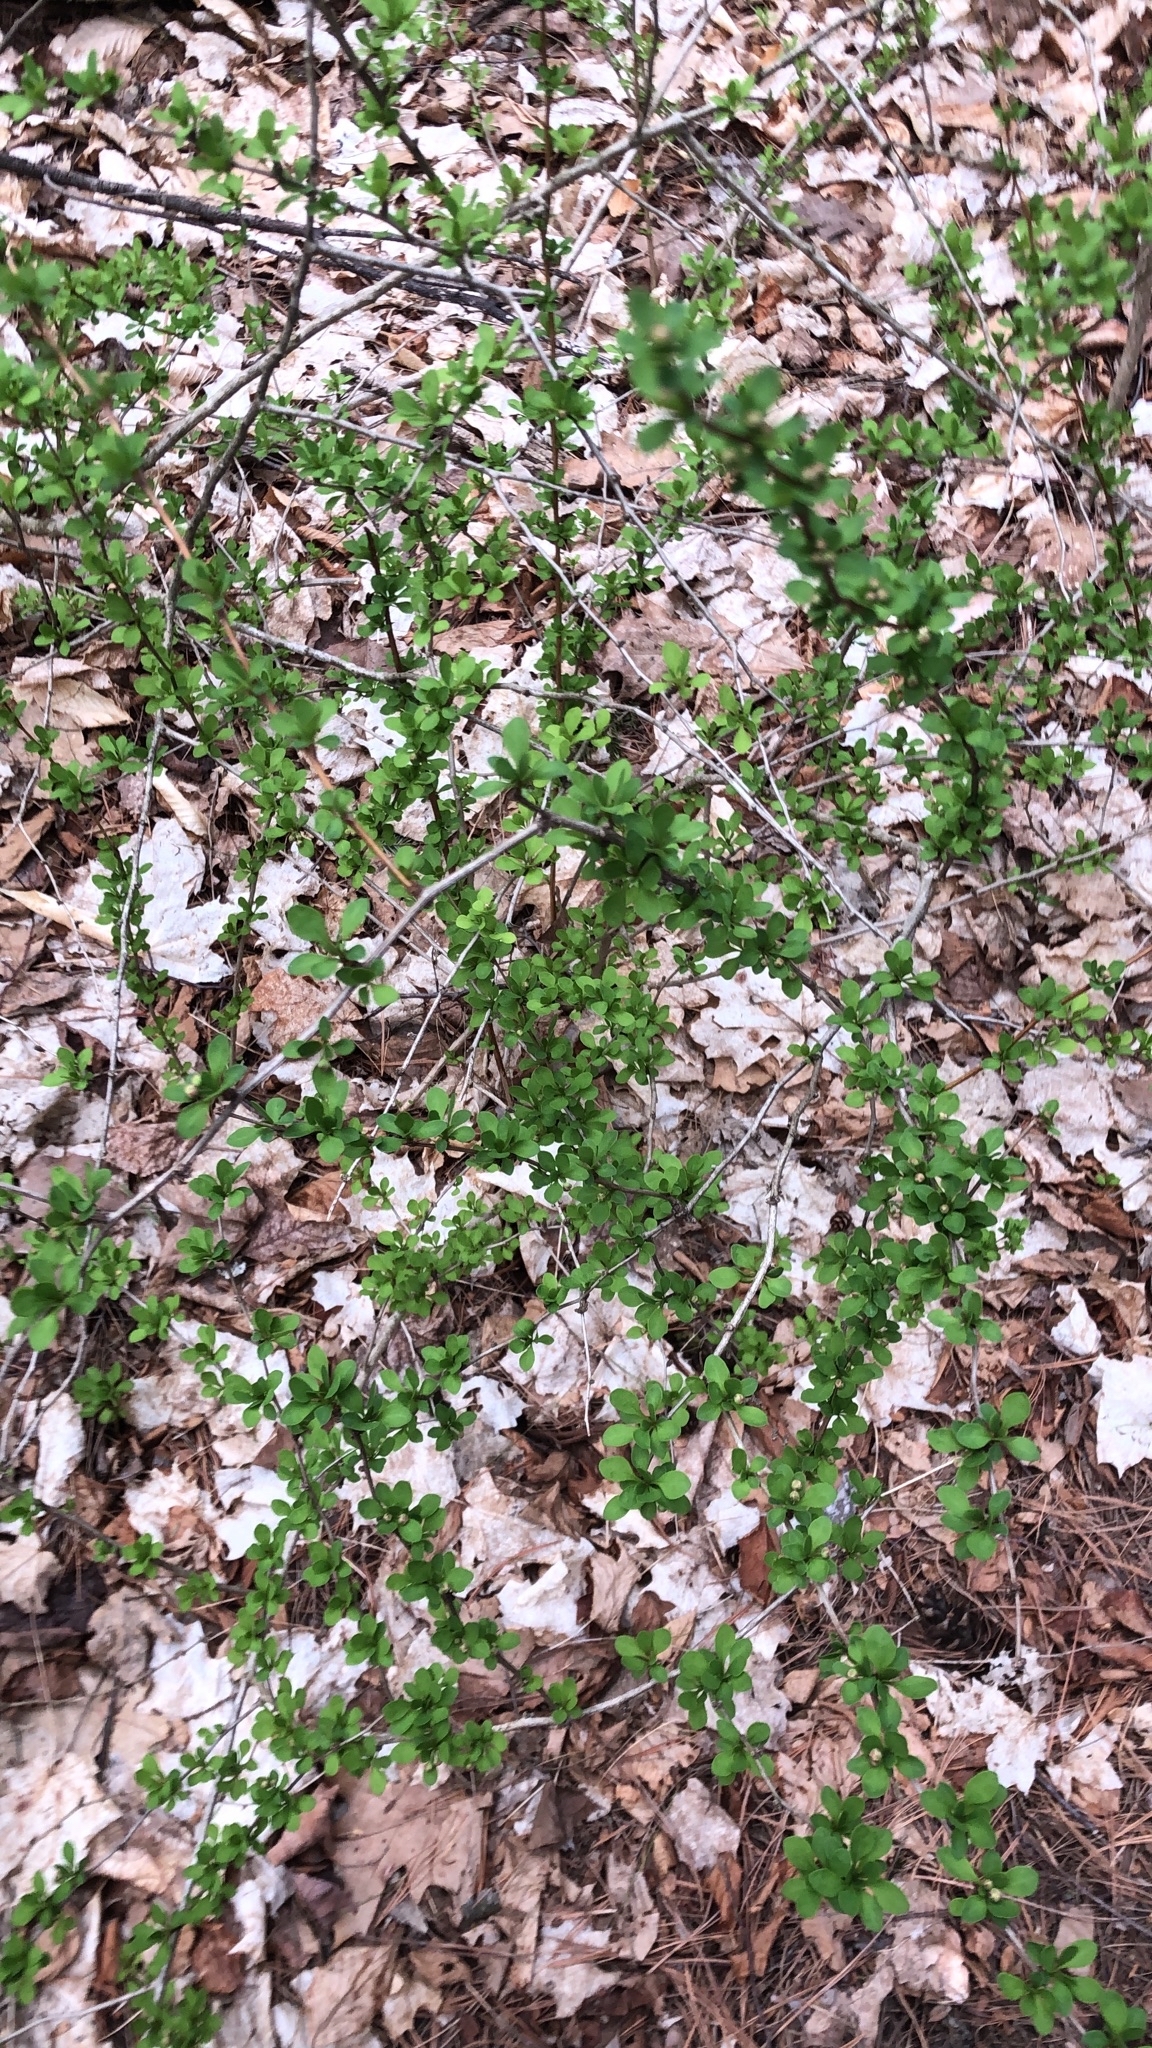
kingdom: Plantae
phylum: Tracheophyta
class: Magnoliopsida
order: Ranunculales
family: Berberidaceae
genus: Berberis
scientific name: Berberis thunbergii
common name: Japanese barberry
